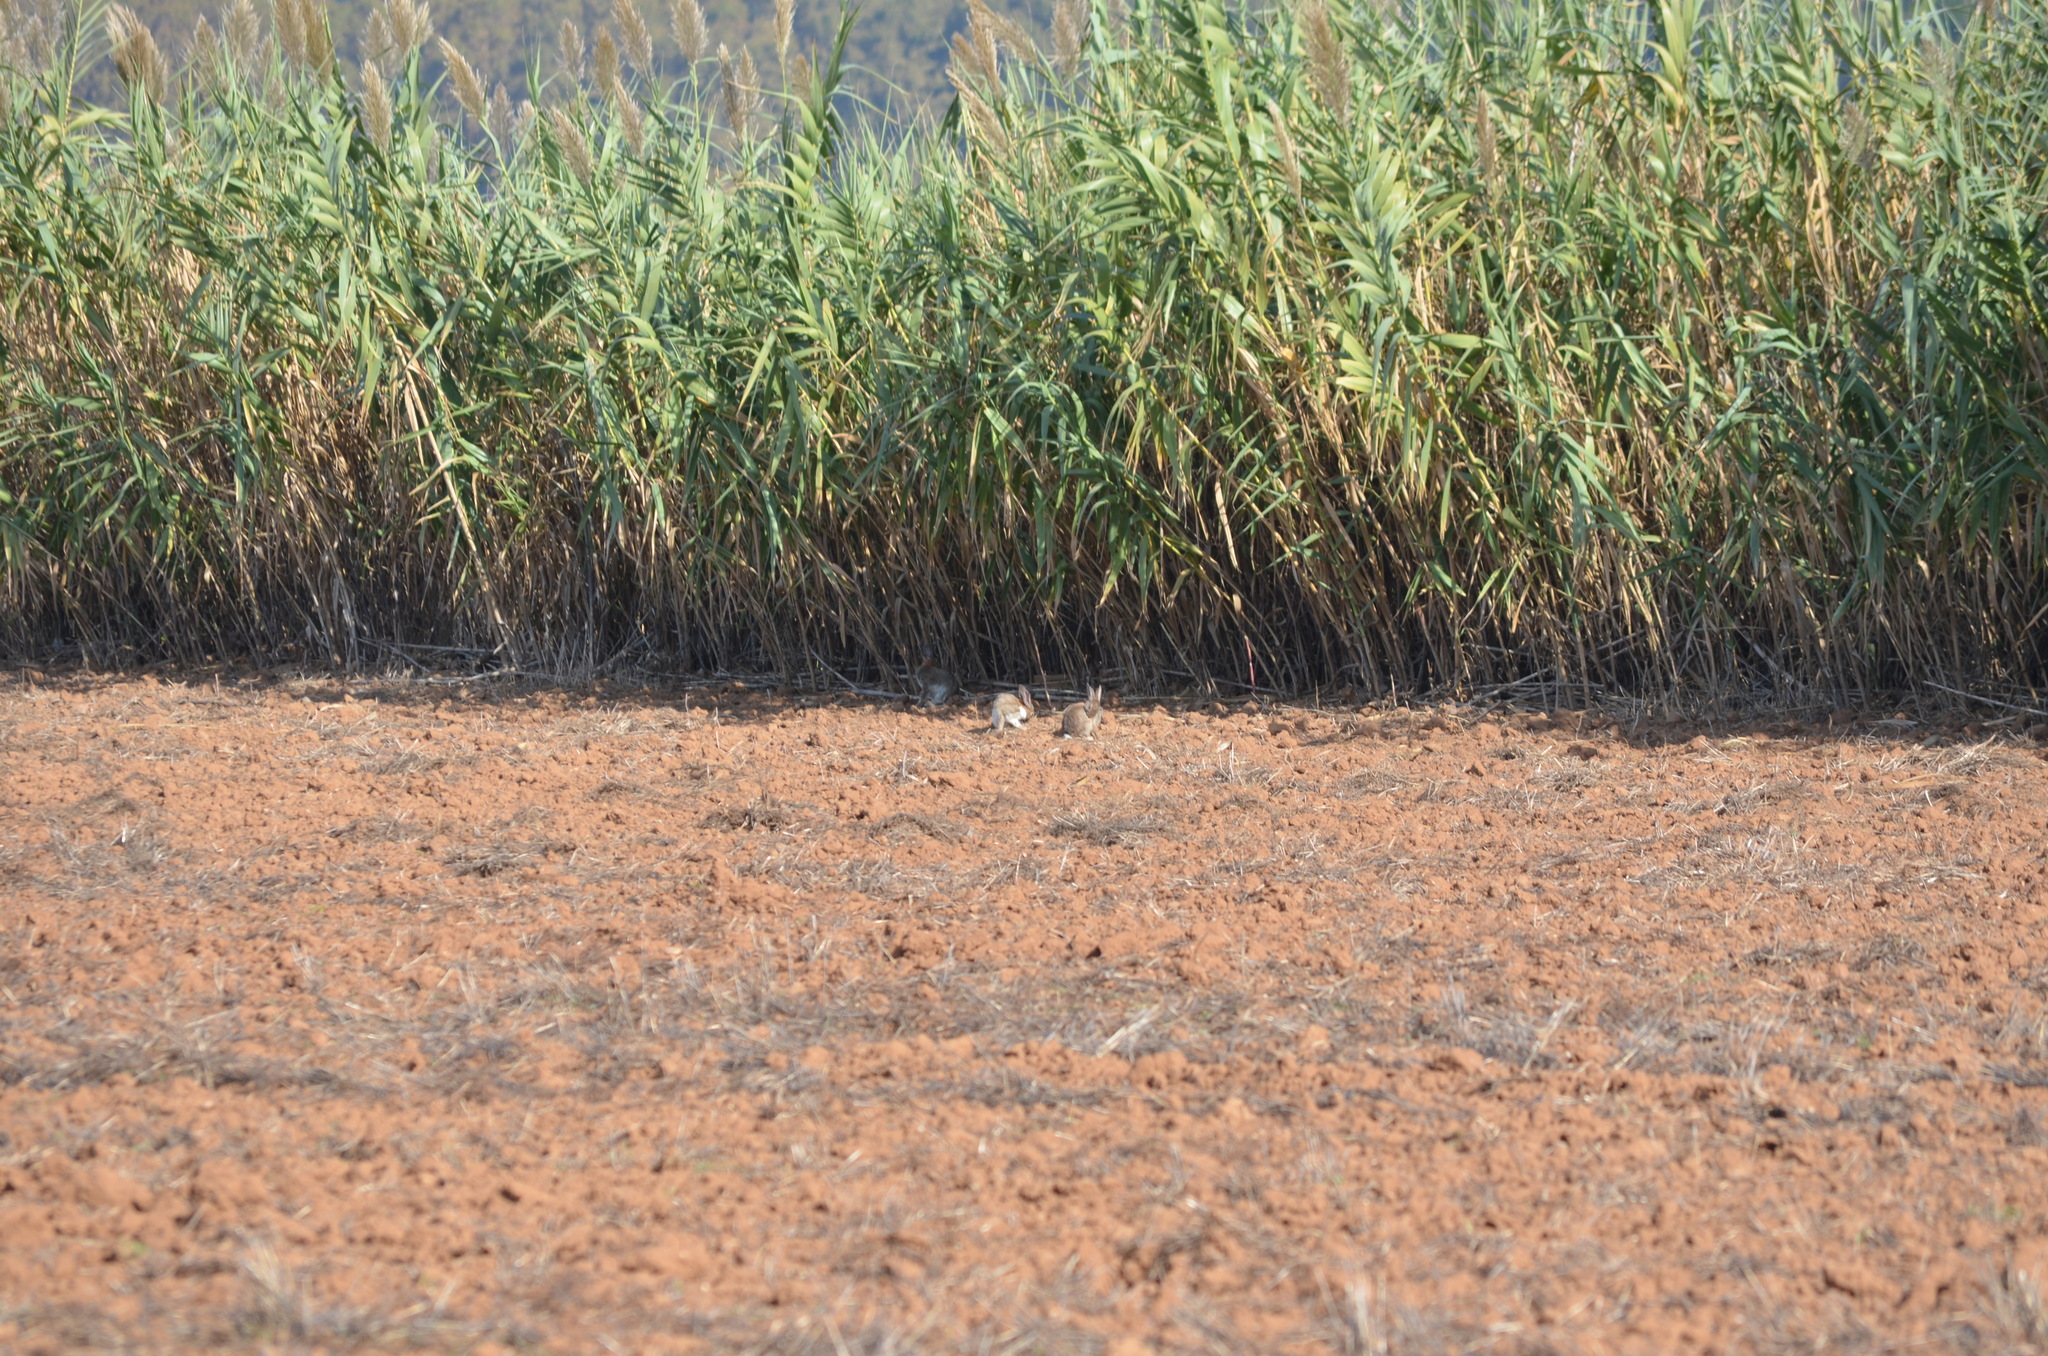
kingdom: Animalia
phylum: Chordata
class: Mammalia
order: Lagomorpha
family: Leporidae
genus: Oryctolagus
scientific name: Oryctolagus cuniculus
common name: European rabbit
